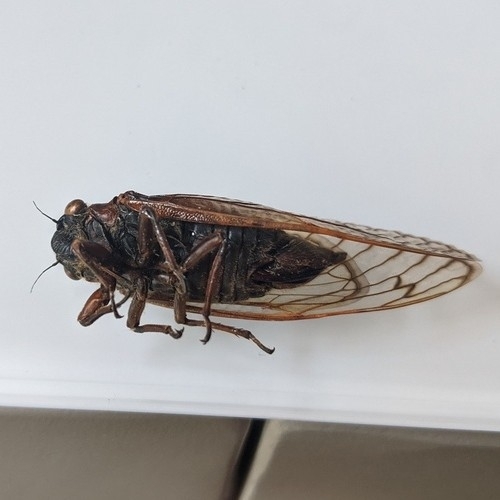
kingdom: Animalia
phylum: Arthropoda
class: Insecta
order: Hemiptera
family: Cicadidae
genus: Magicicada
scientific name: Magicicada septendecim
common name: Periodical cicada
